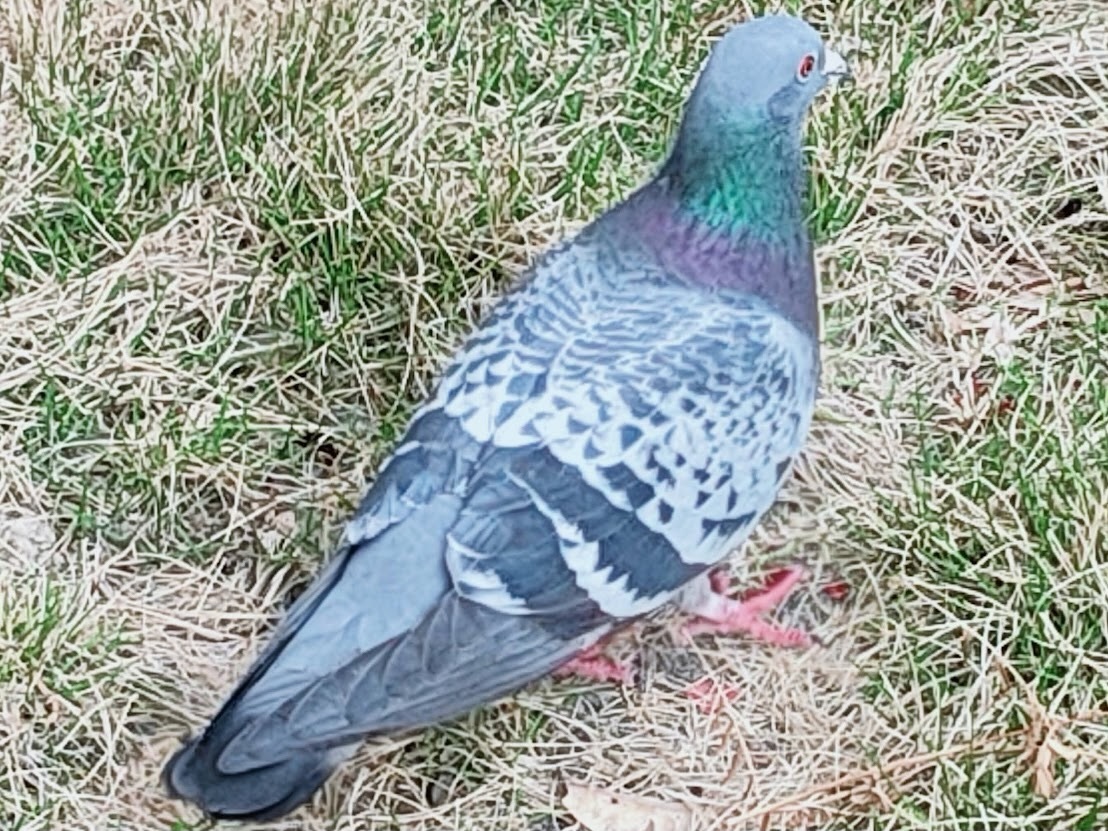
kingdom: Animalia
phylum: Chordata
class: Aves
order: Columbiformes
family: Columbidae
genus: Columba
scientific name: Columba livia
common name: Rock pigeon
